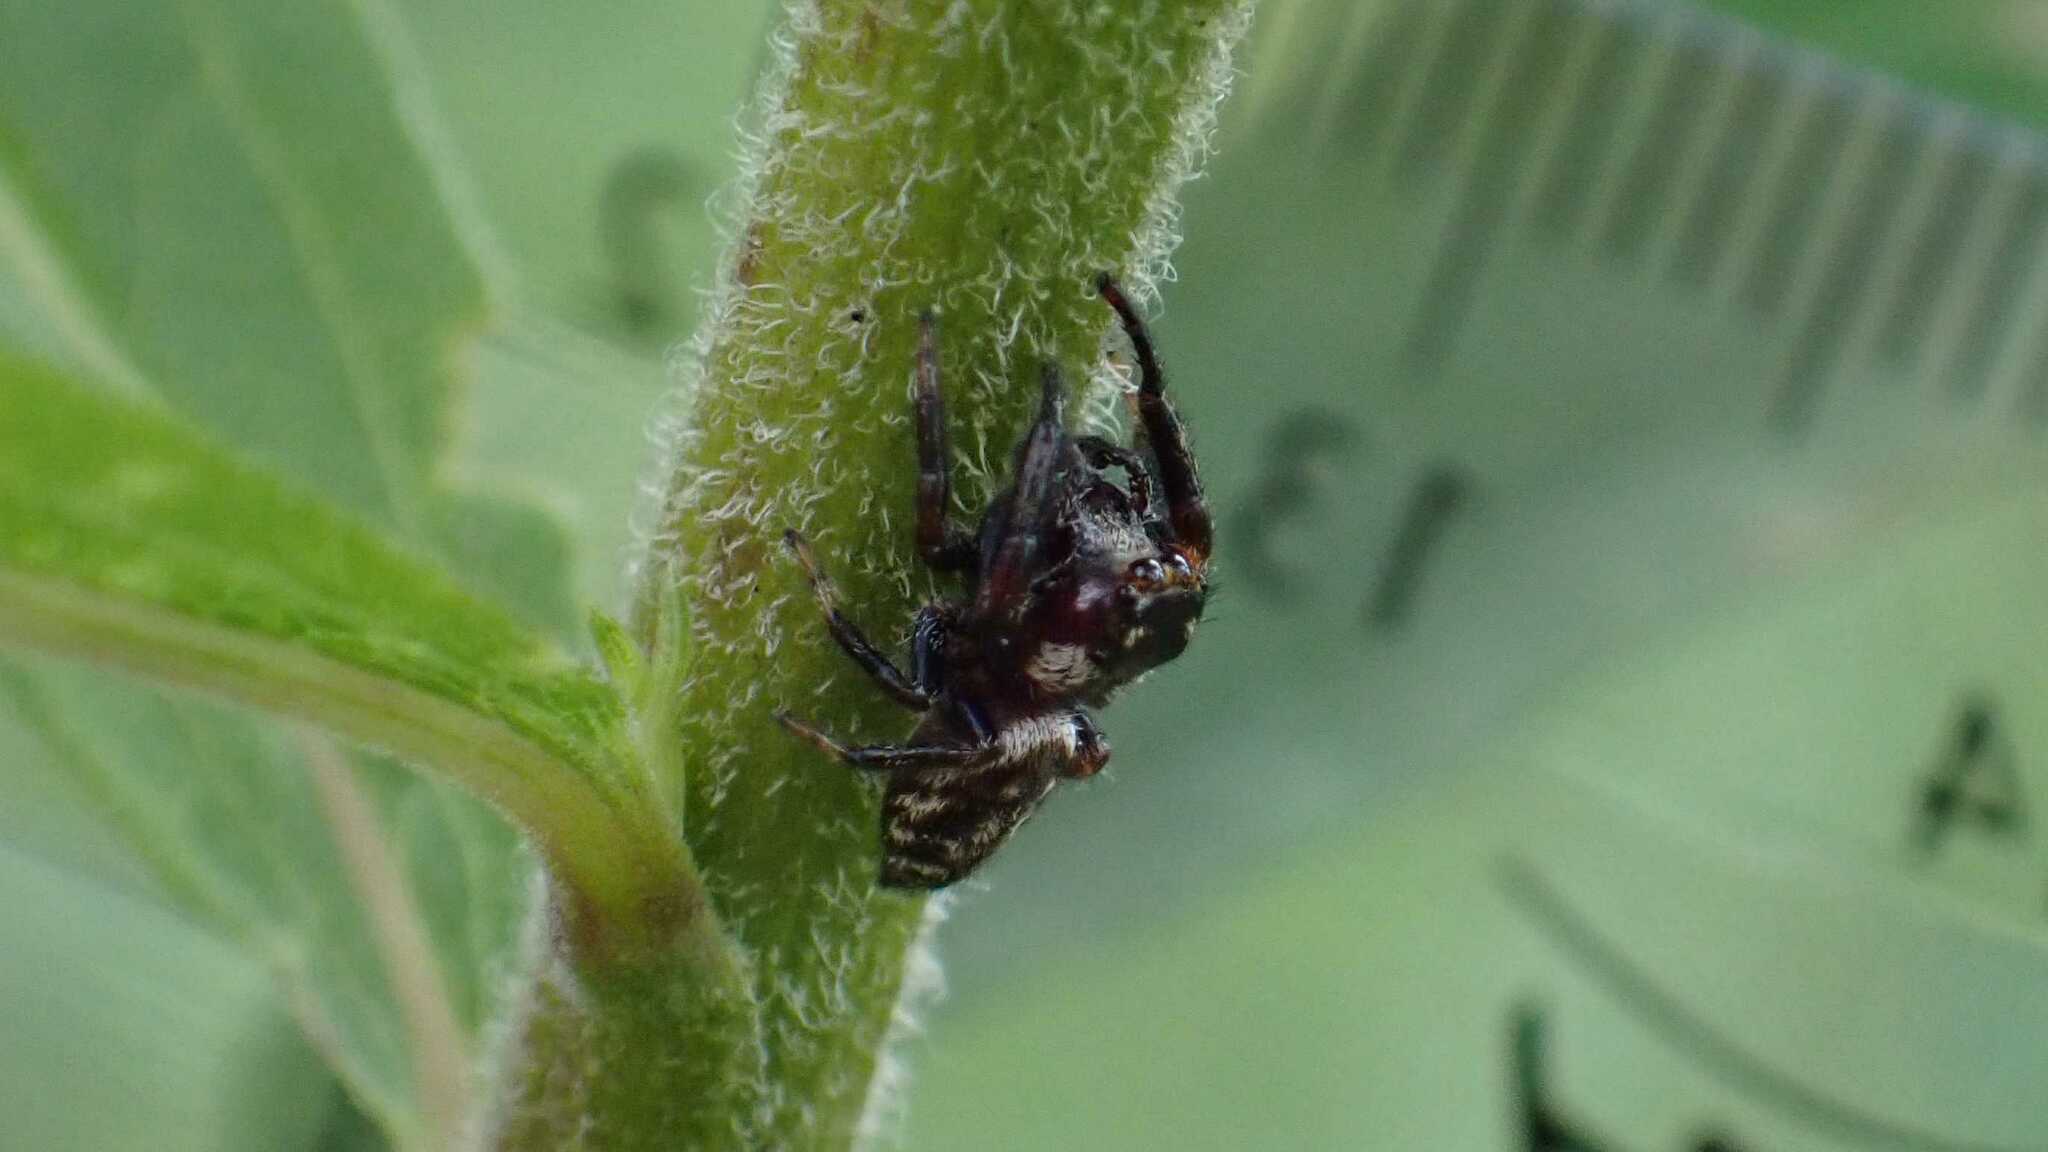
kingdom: Animalia
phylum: Arthropoda
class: Arachnida
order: Araneae
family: Salticidae
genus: Macaroeris
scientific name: Macaroeris nidicolens
